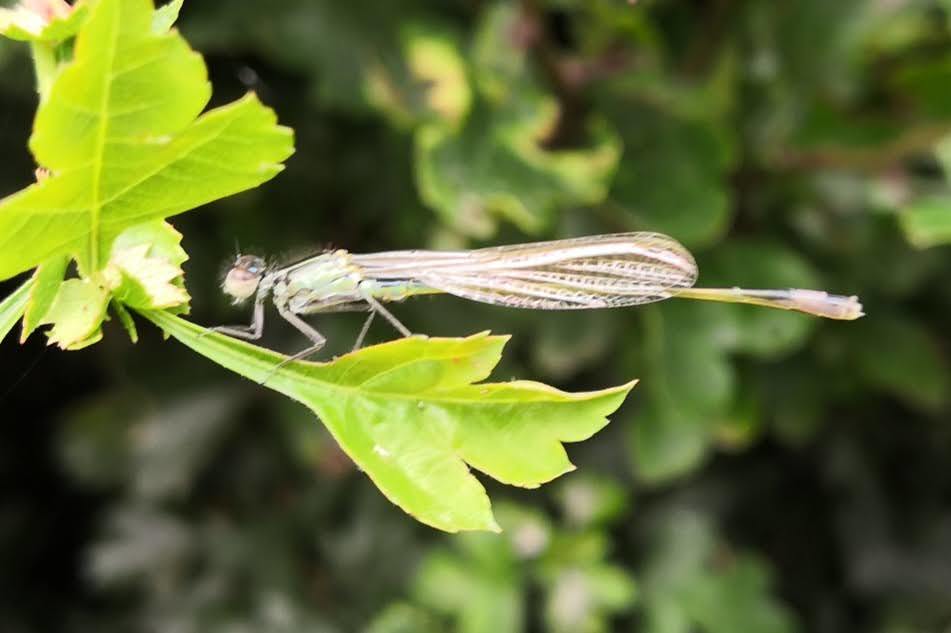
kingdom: Animalia
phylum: Arthropoda
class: Insecta
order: Odonata
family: Coenagrionidae
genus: Ischnura
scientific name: Ischnura elegans
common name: Blue-tailed damselfly
